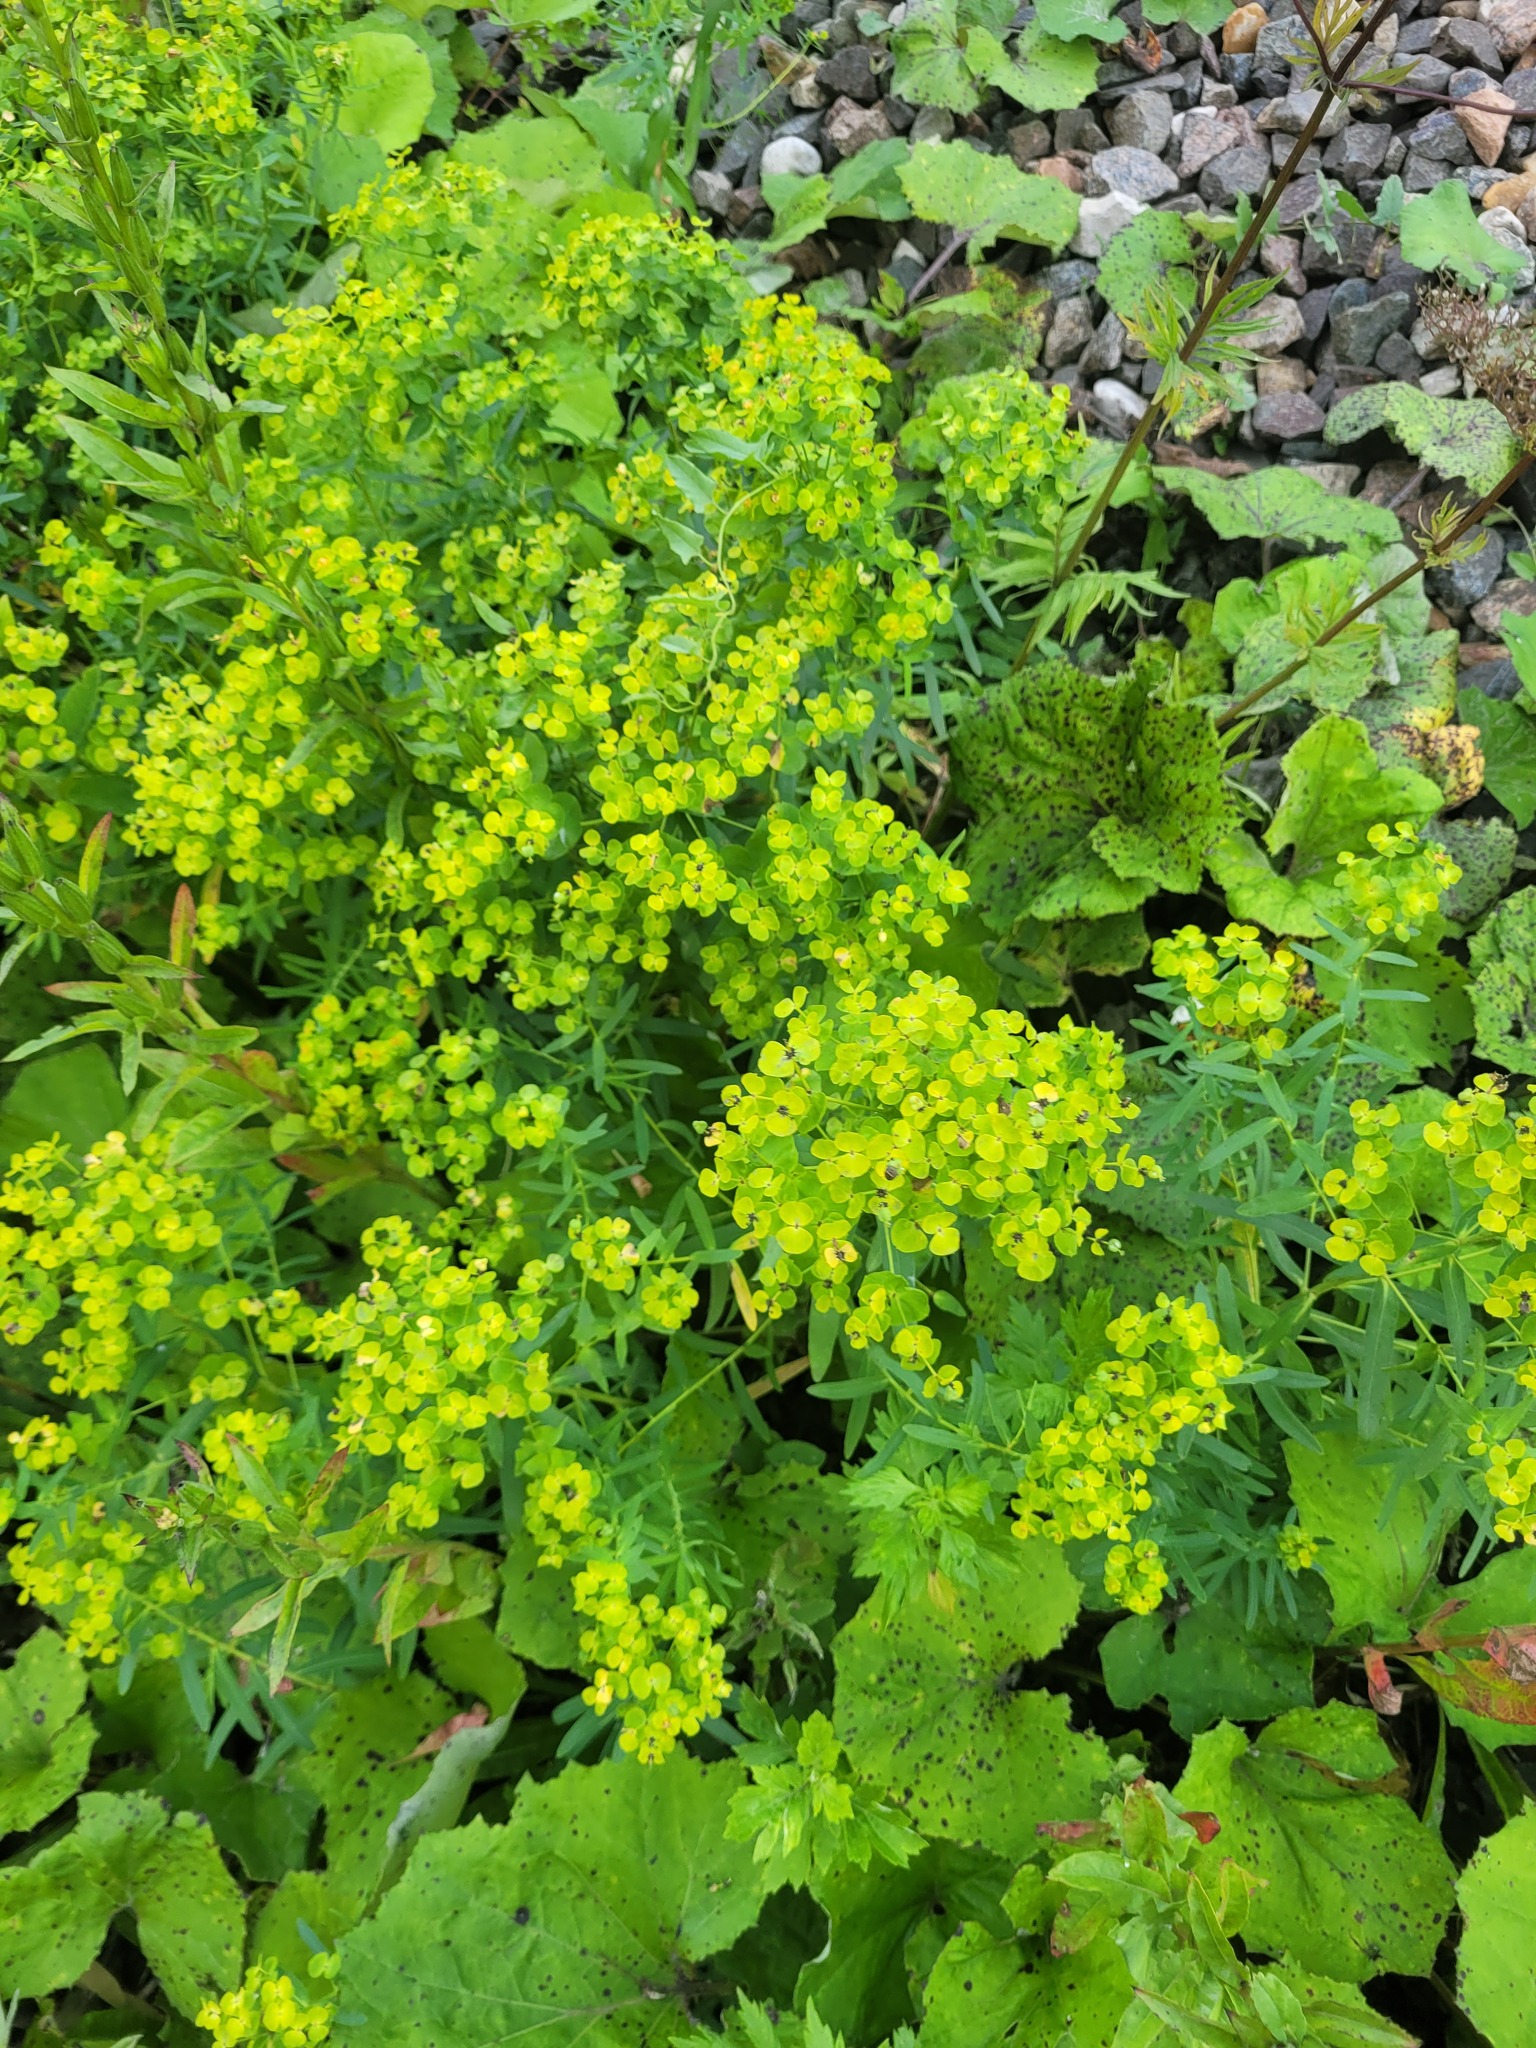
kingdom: Plantae
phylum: Tracheophyta
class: Magnoliopsida
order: Malpighiales
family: Euphorbiaceae
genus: Euphorbia
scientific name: Euphorbia virgata
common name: Leafy spurge
